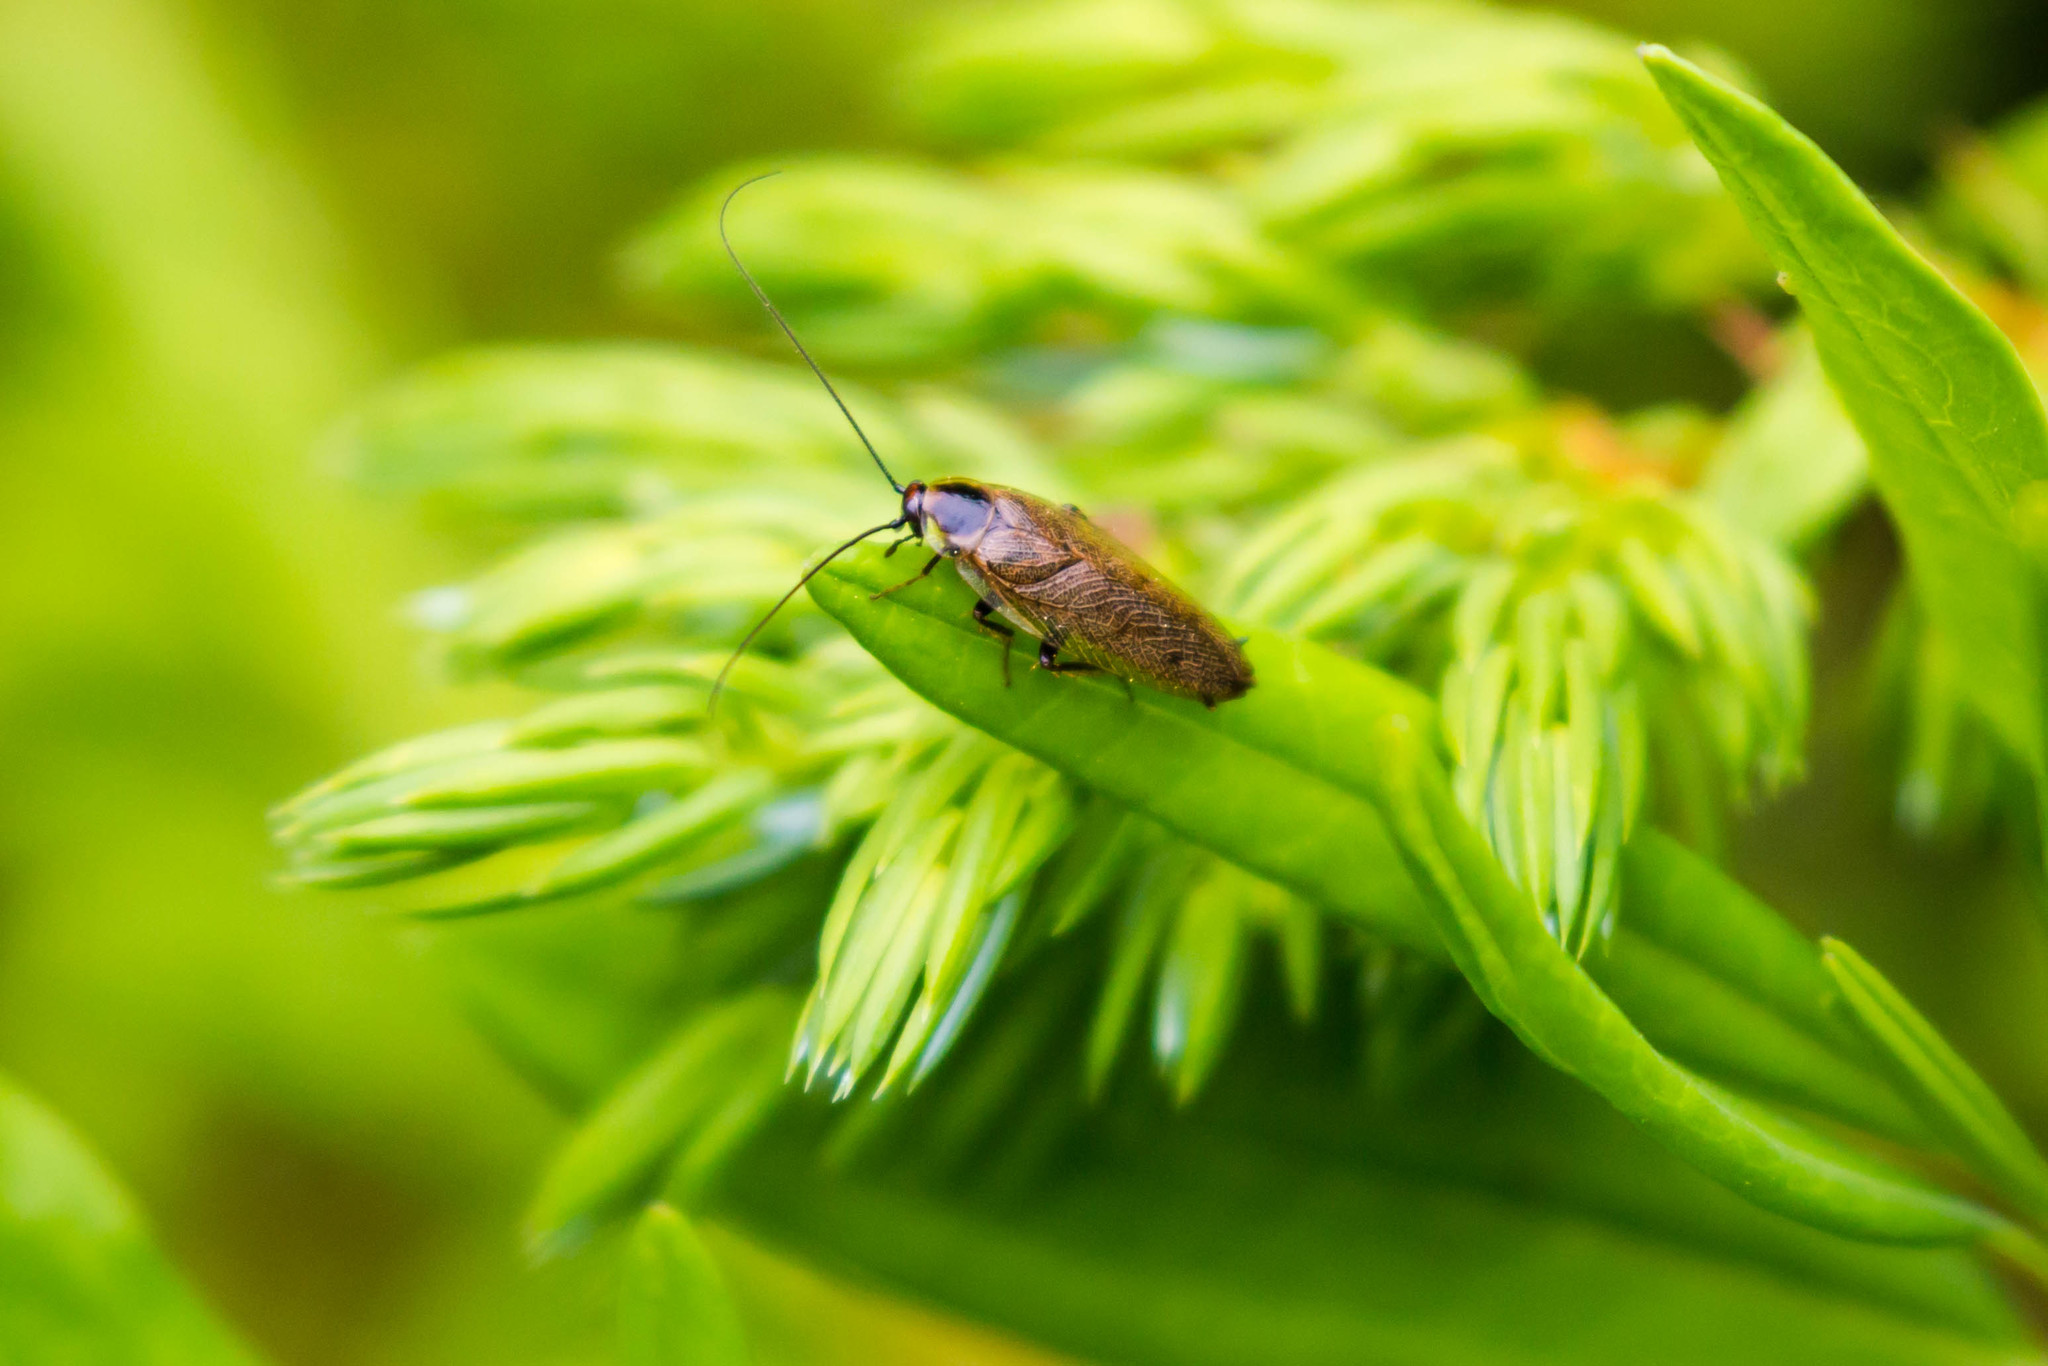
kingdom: Animalia
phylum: Arthropoda
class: Insecta
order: Blattodea
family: Ectobiidae
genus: Ectobius
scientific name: Ectobius lapponicus
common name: Dusky cockroach
